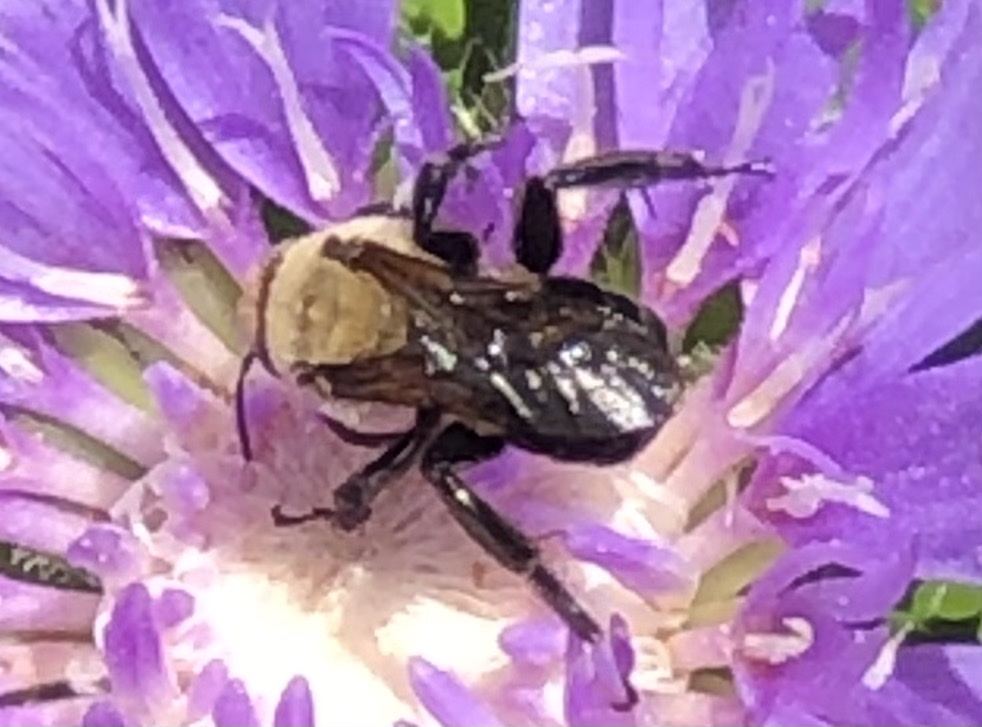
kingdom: Animalia
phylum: Arthropoda
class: Insecta
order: Hymenoptera
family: Apidae
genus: Ptilothrix
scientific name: Ptilothrix bombiformis
